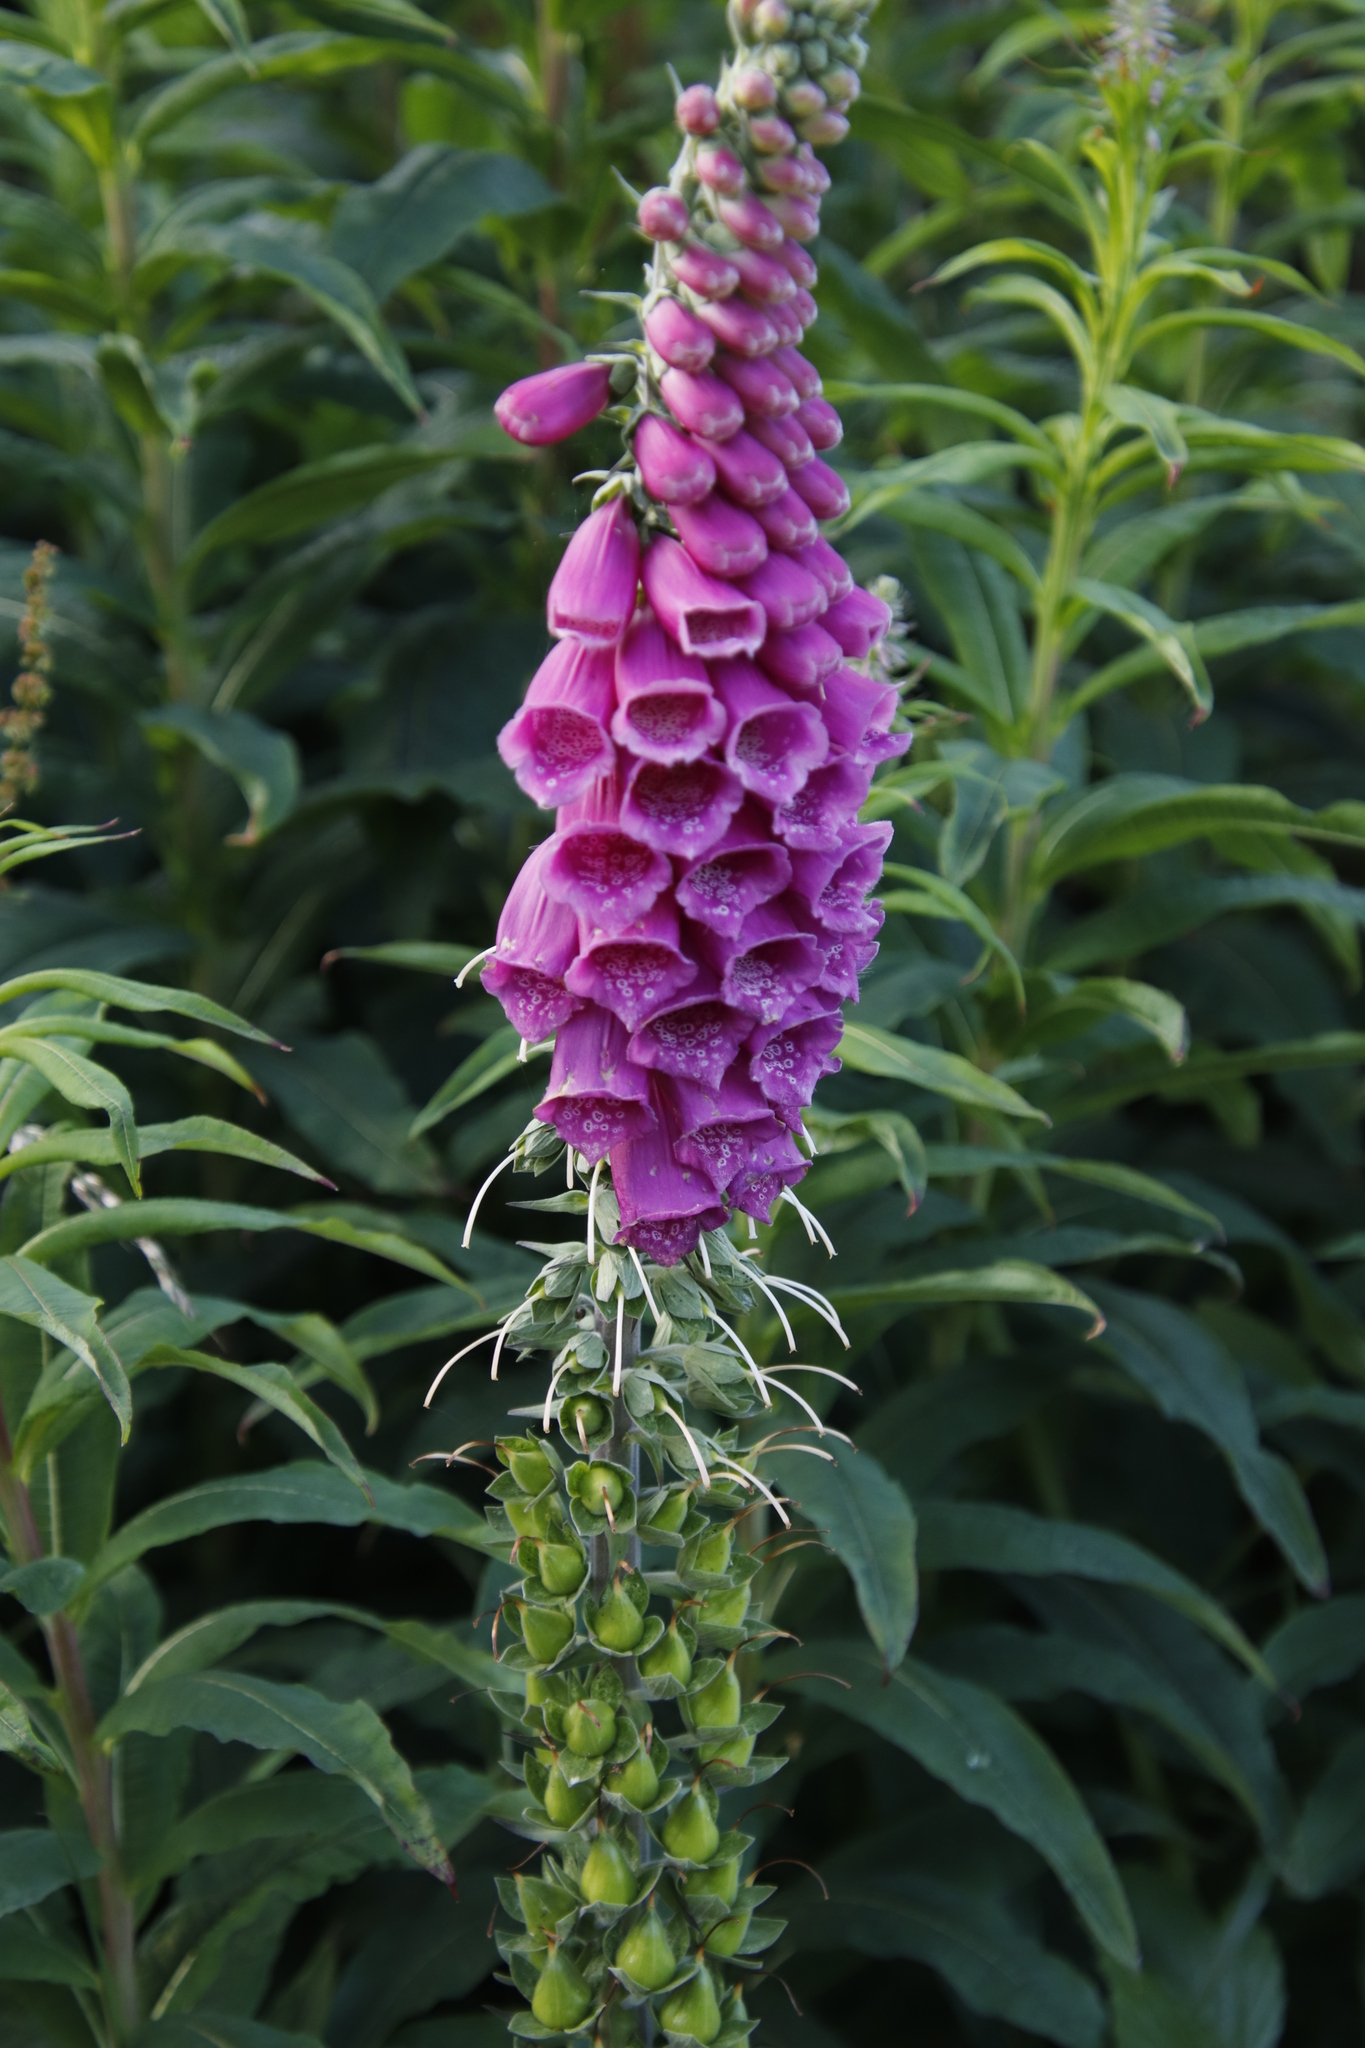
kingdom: Plantae
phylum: Tracheophyta
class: Magnoliopsida
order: Lamiales
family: Plantaginaceae
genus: Digitalis
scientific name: Digitalis purpurea
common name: Foxglove
